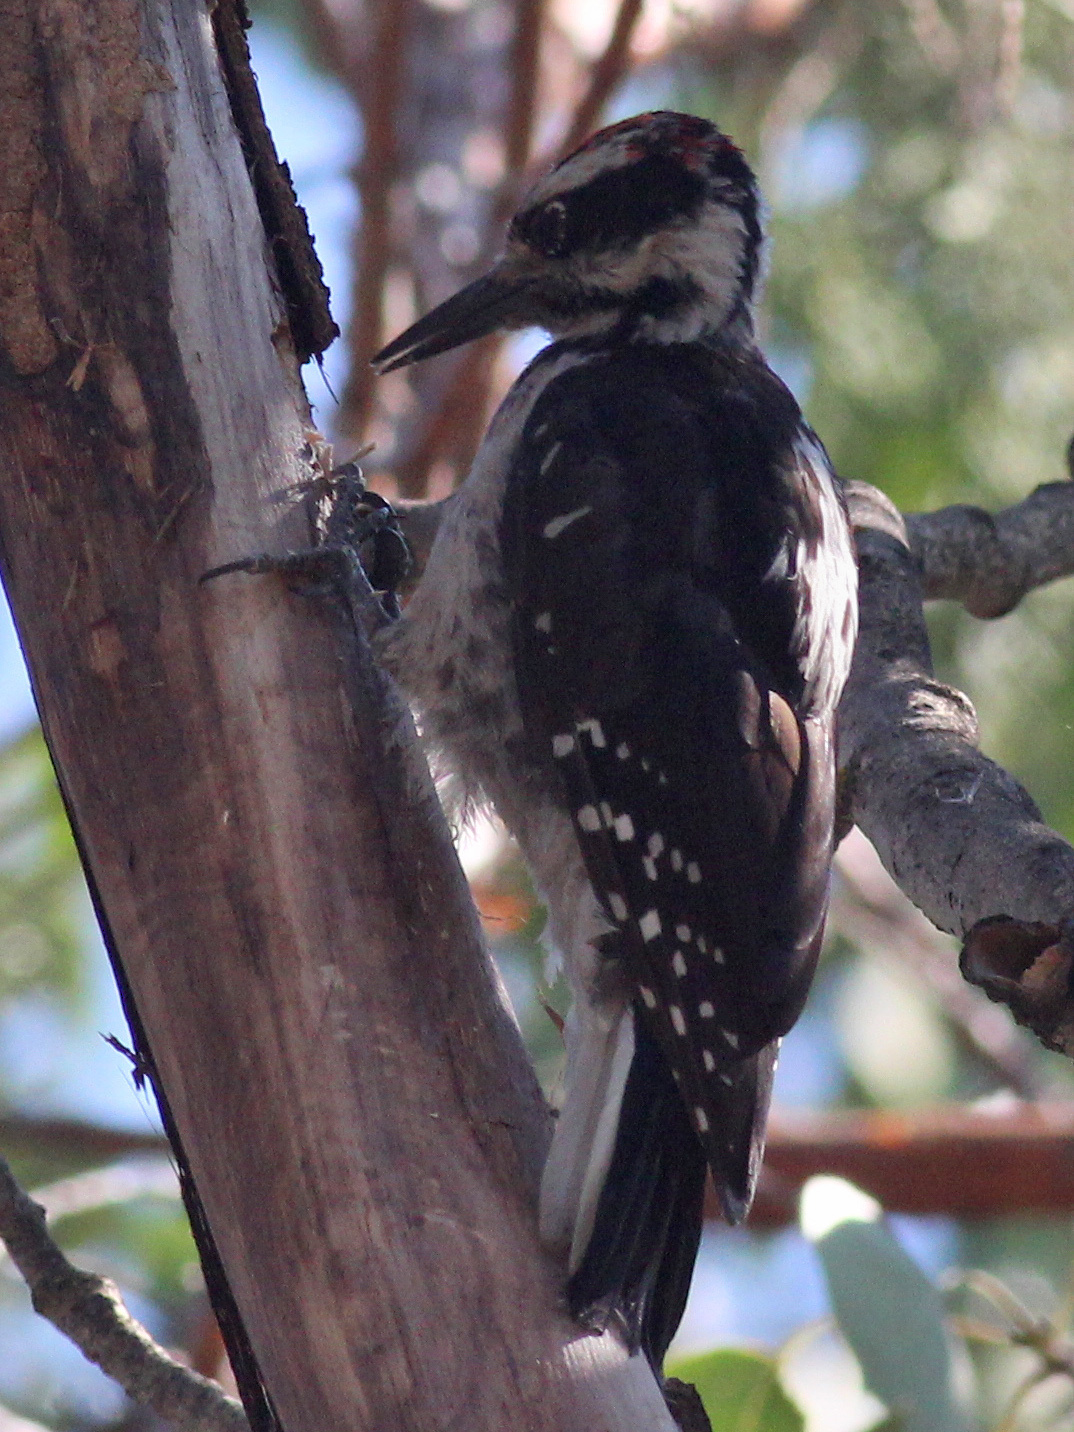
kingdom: Animalia
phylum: Chordata
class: Aves
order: Piciformes
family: Picidae
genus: Leuconotopicus
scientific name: Leuconotopicus villosus
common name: Hairy woodpecker
